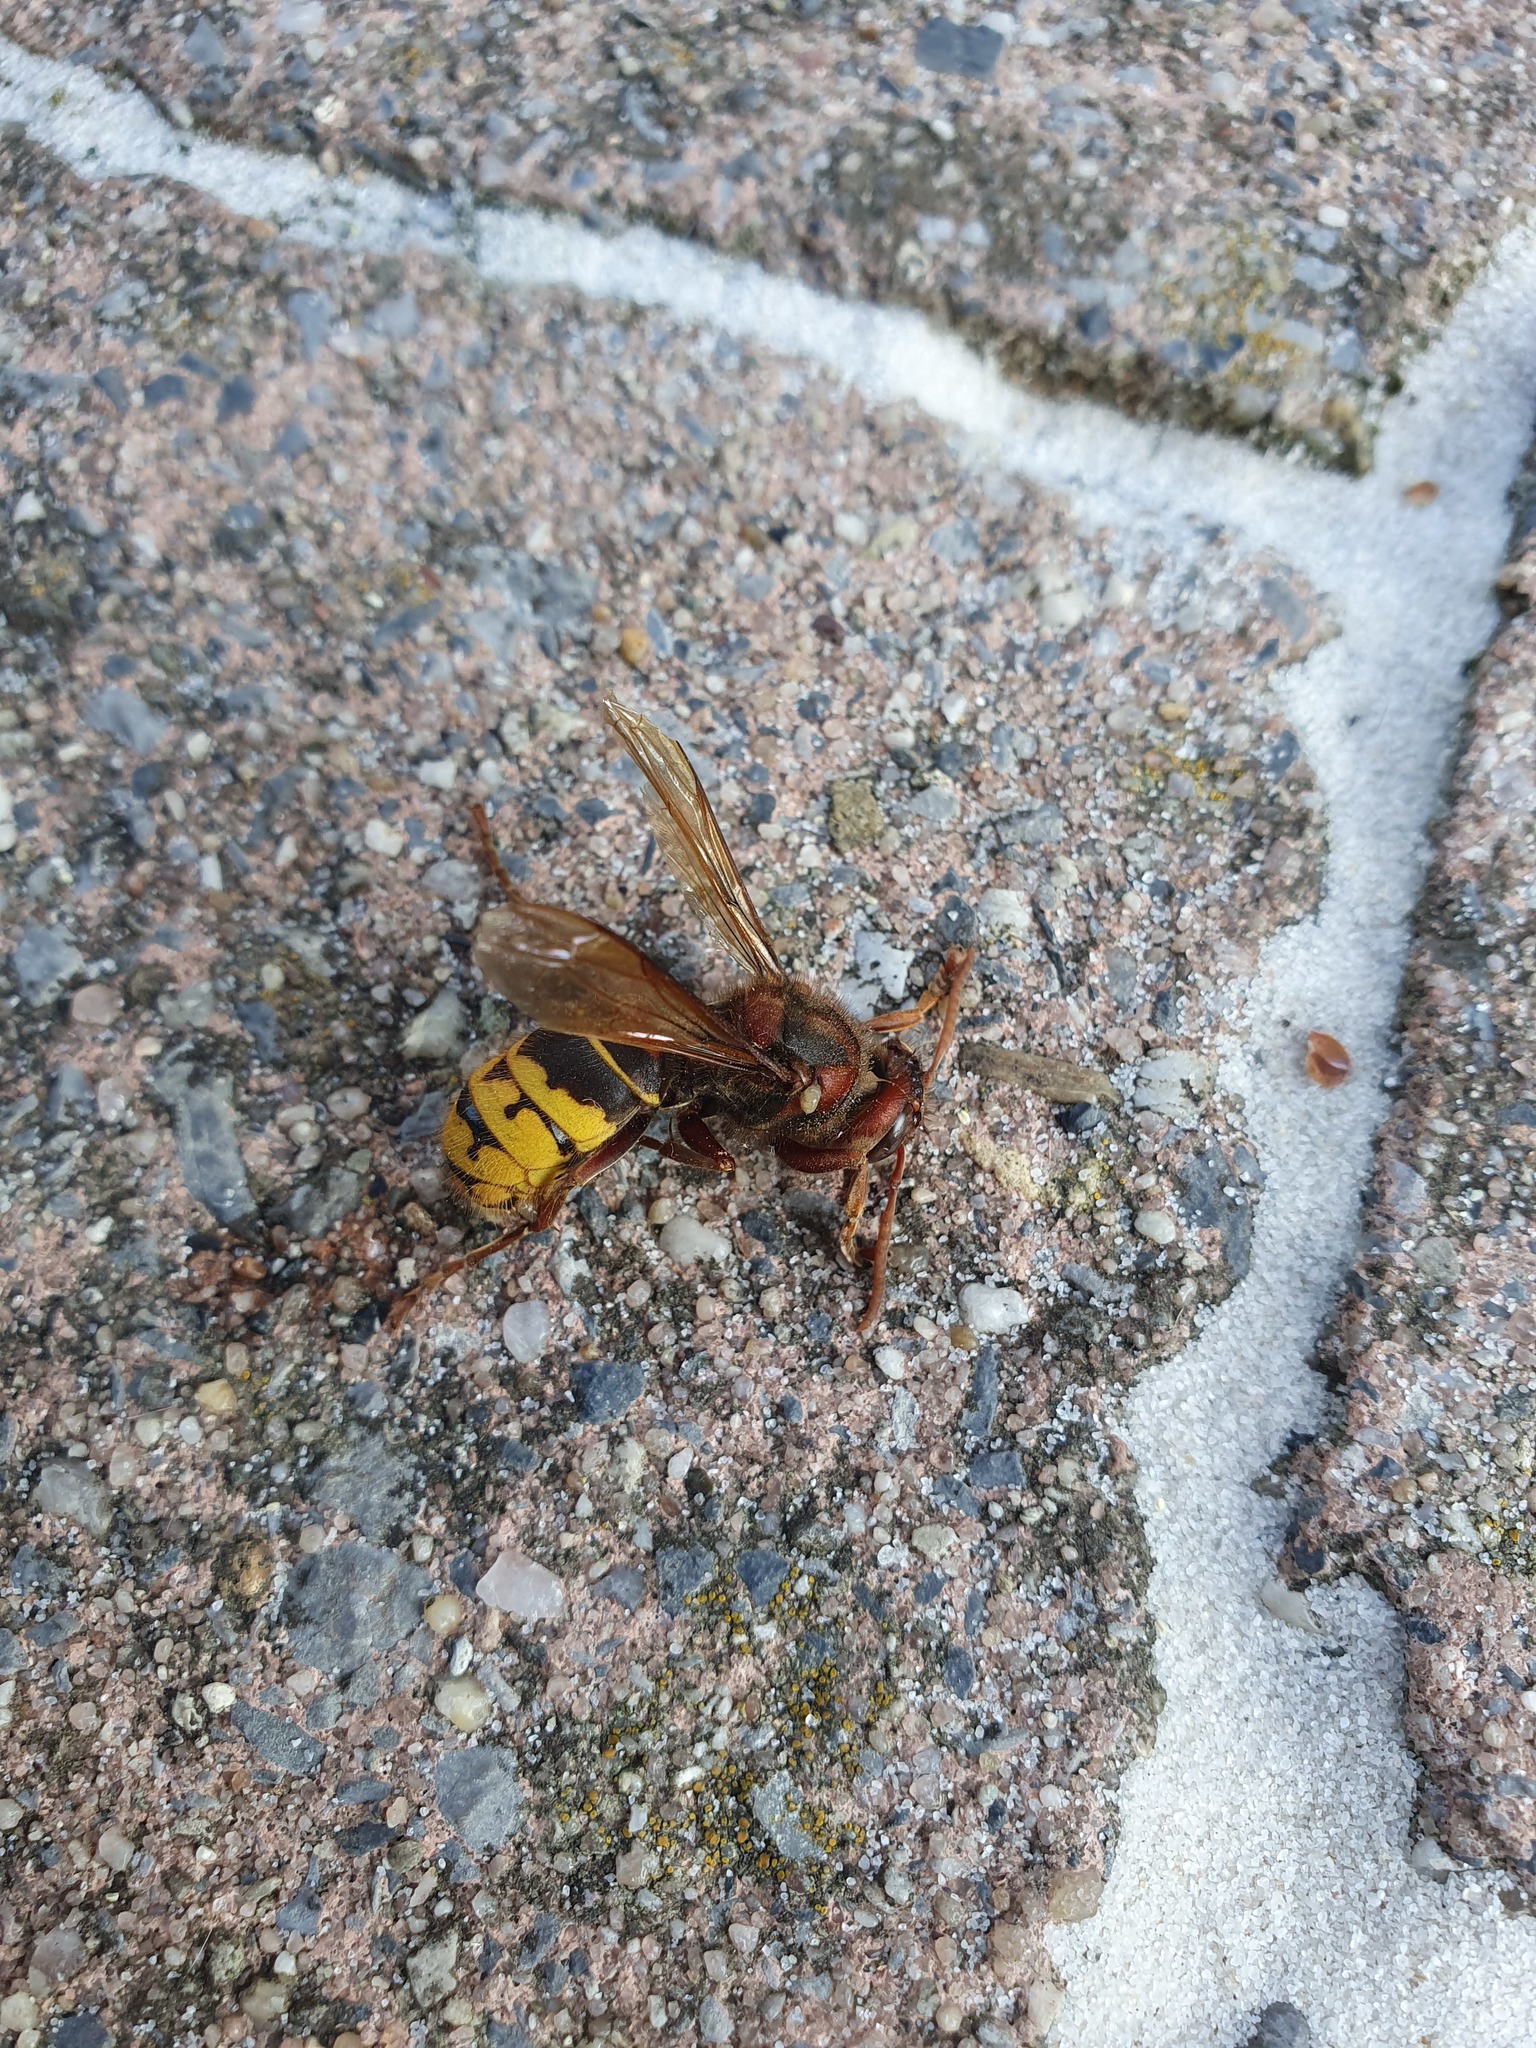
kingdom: Animalia
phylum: Arthropoda
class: Insecta
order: Hymenoptera
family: Vespidae
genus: Vespa
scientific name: Vespa crabro
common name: Hornet
